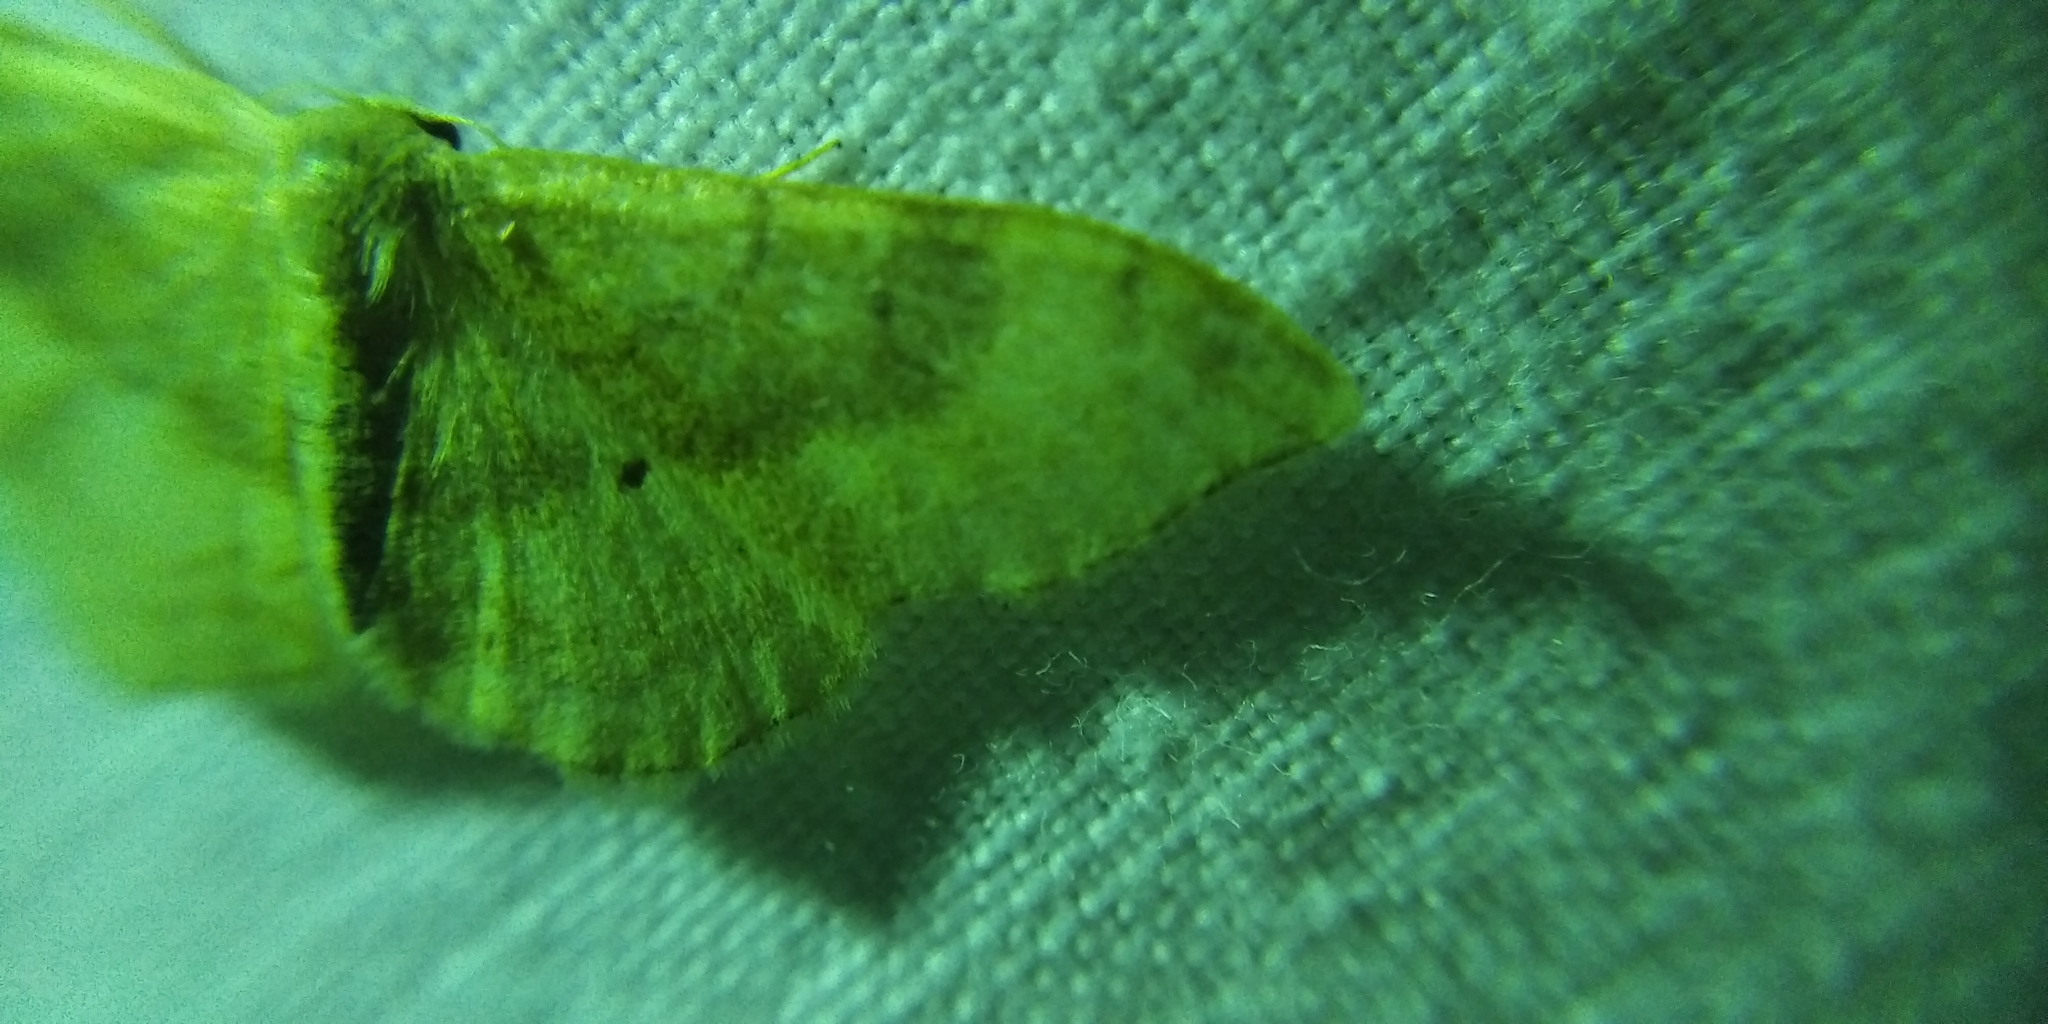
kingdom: Animalia
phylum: Arthropoda
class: Insecta
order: Lepidoptera
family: Geometridae
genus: Idaea
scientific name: Idaea degeneraria
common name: Portland ribbon wave
